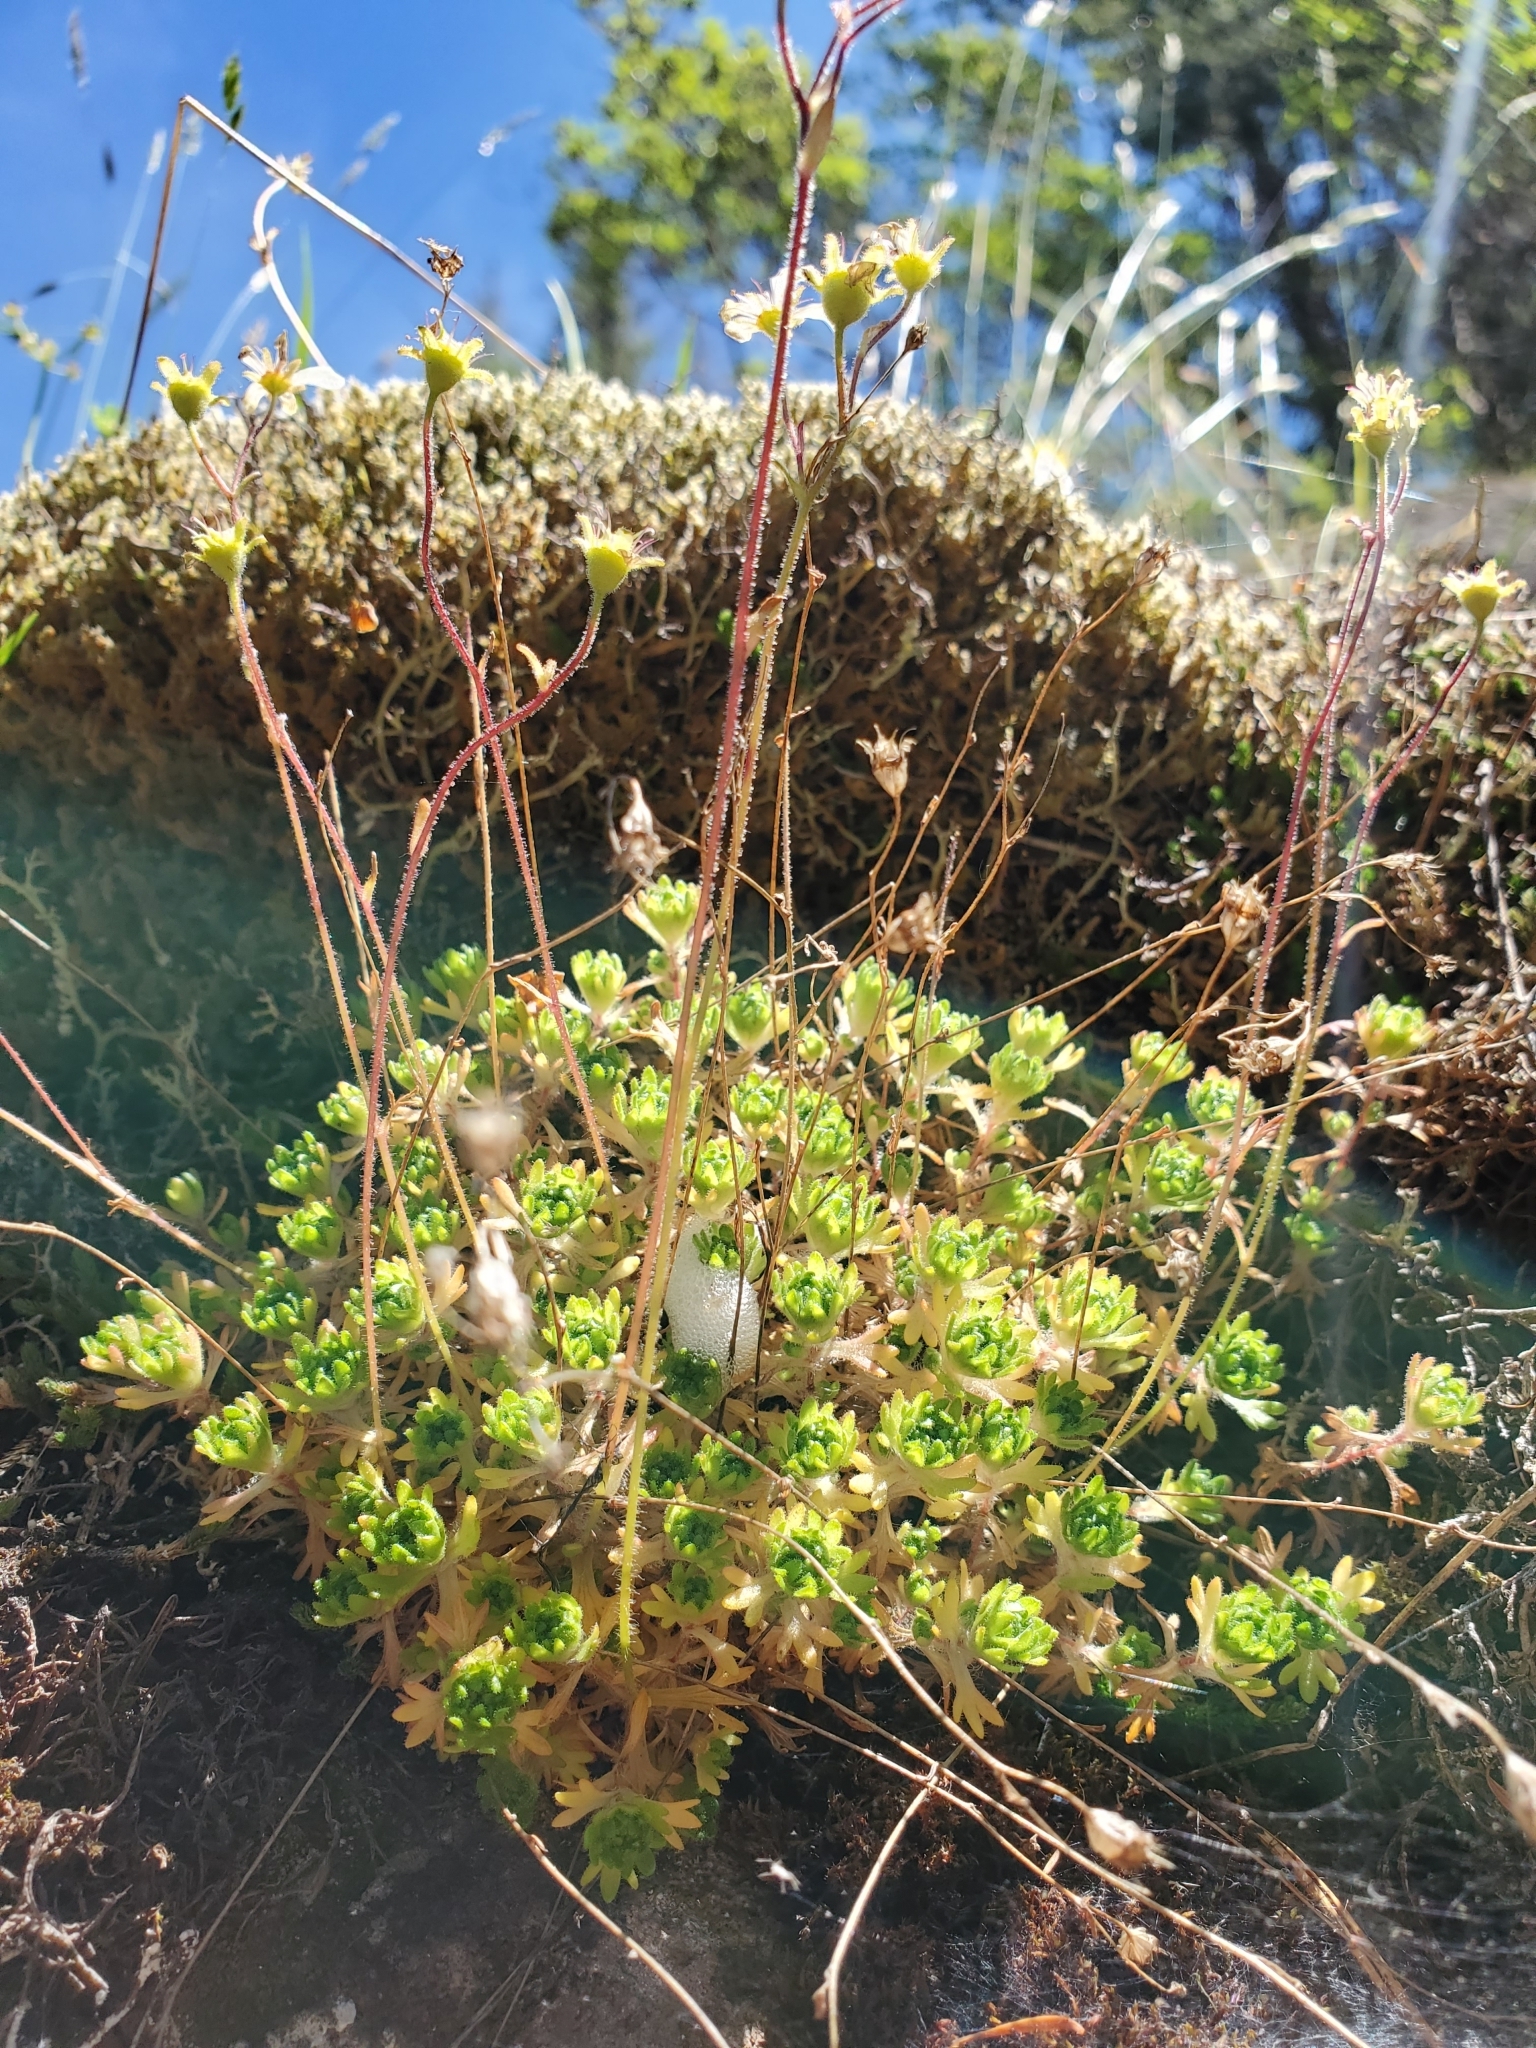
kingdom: Plantae
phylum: Tracheophyta
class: Magnoliopsida
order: Saxifragales
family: Saxifragaceae
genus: Saxifraga
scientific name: Saxifraga cespitosa
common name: Tufted saxifrage
